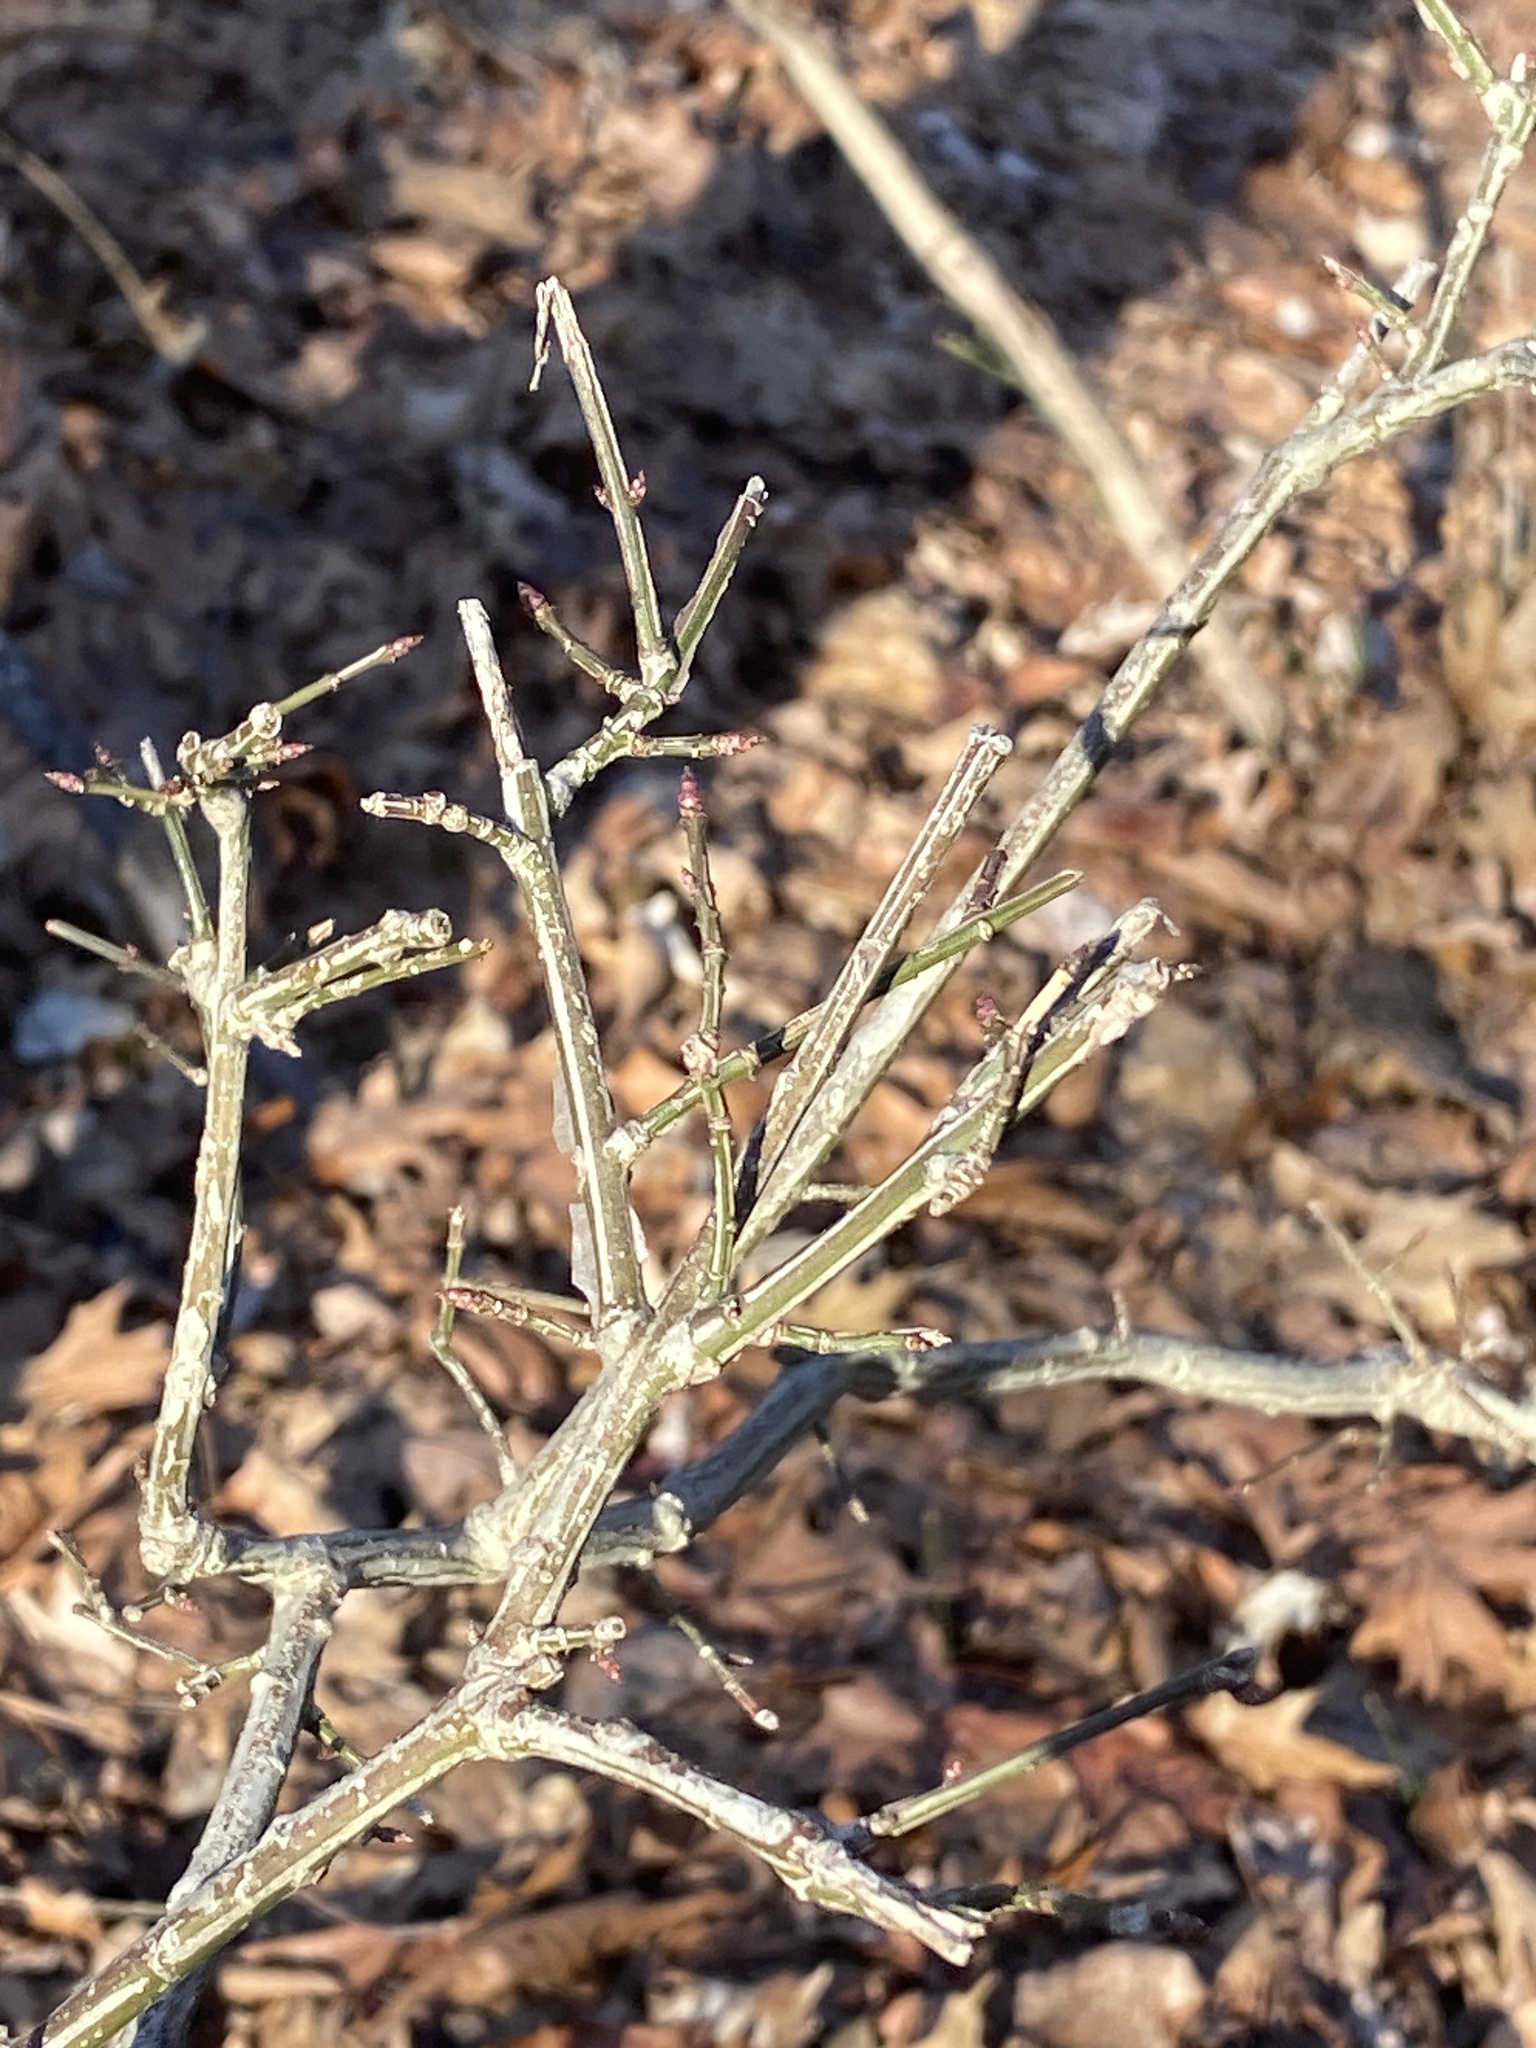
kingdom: Plantae
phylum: Tracheophyta
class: Magnoliopsida
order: Celastrales
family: Celastraceae
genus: Euonymus
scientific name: Euonymus alatus
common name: Winged euonymus
